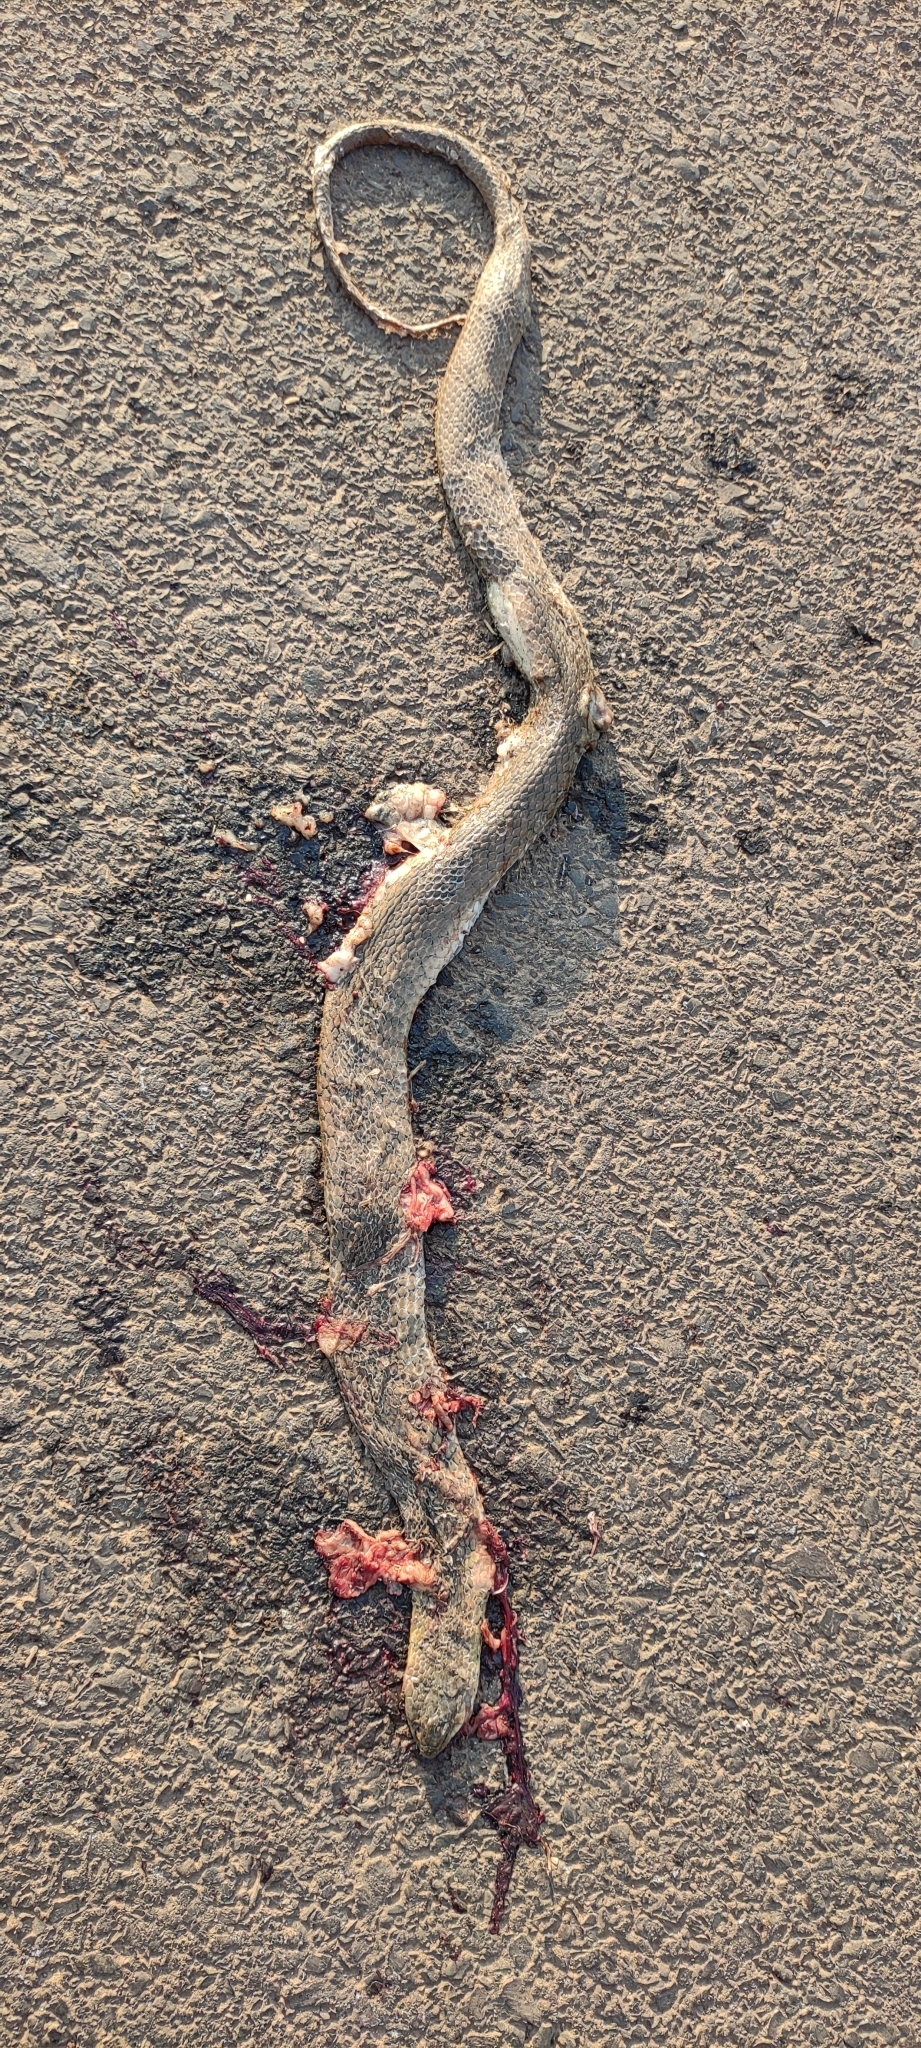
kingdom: Animalia
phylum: Chordata
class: Squamata
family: Colubridae
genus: Fowlea
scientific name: Fowlea piscator
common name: Asiatic water snake
